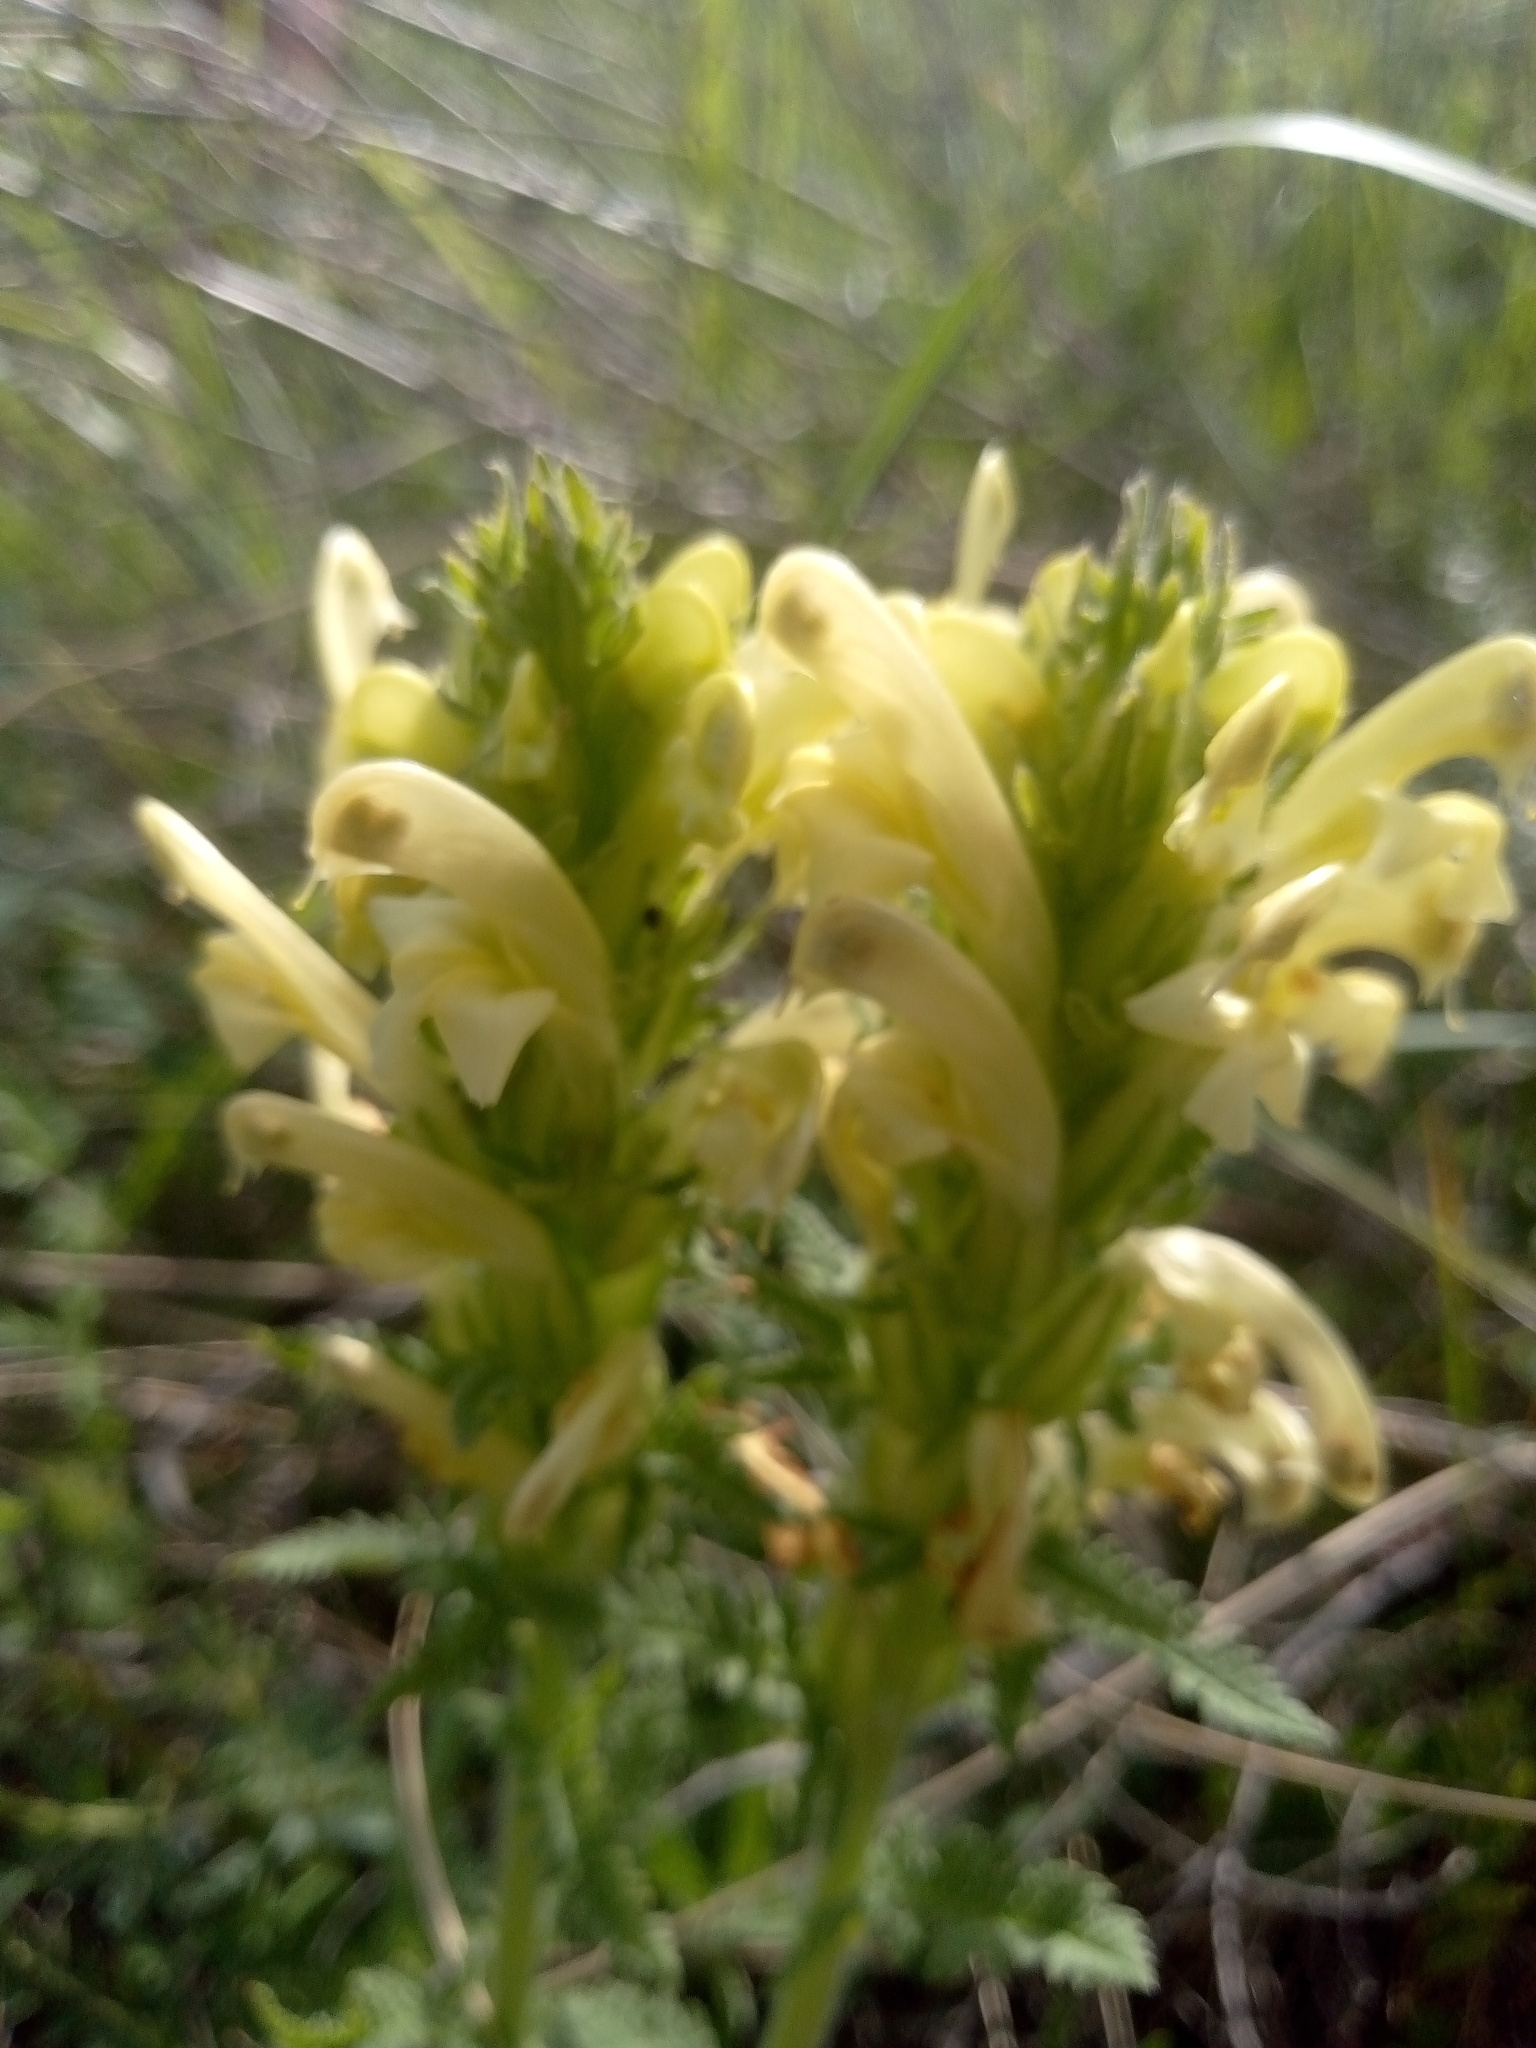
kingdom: Plantae
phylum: Tracheophyta
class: Magnoliopsida
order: Lamiales
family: Orobanchaceae
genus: Pedicularis
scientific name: Pedicularis kaufmannii
